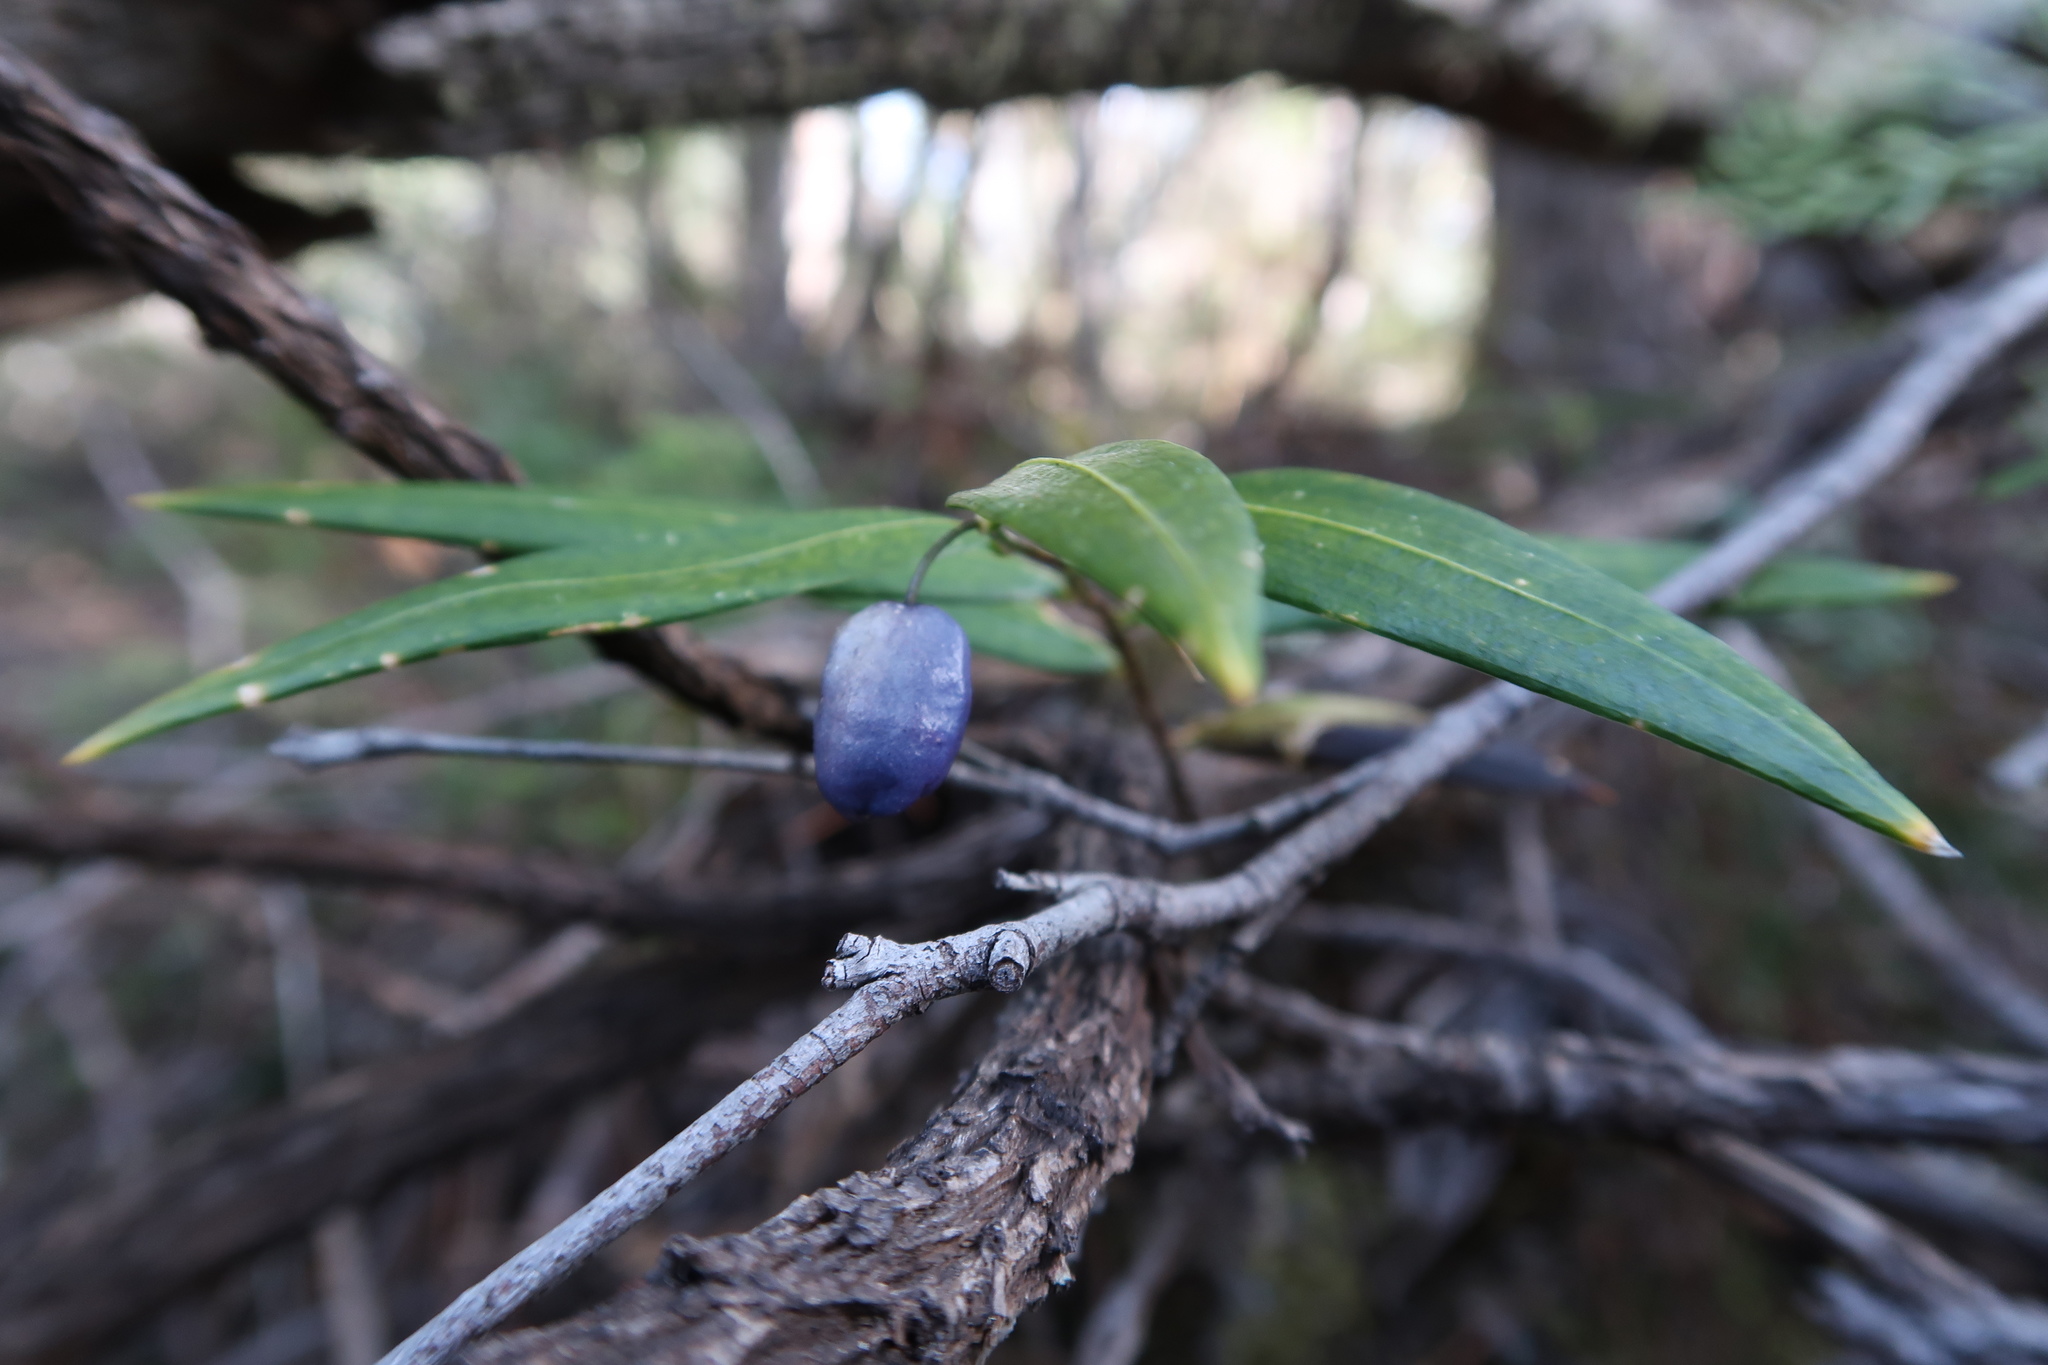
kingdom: Plantae
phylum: Tracheophyta
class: Liliopsida
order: Liliales
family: Alstroemeriaceae
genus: Drymophila
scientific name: Drymophila cyanocarpa
